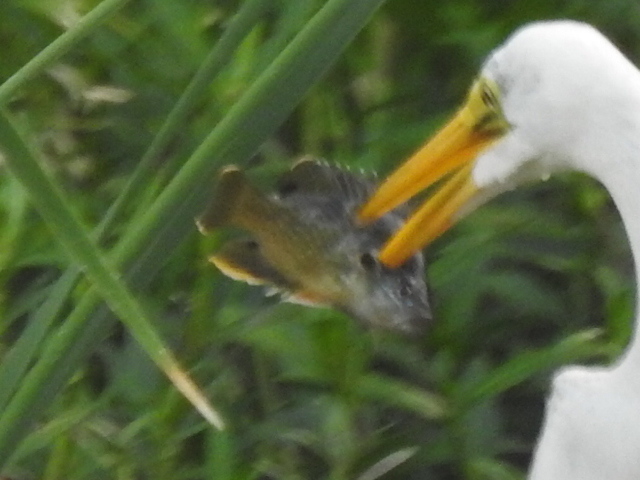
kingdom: Animalia
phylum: Chordata
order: Perciformes
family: Centrarchidae
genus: Lepomis
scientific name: Lepomis cyanellus
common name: Green sunfish
